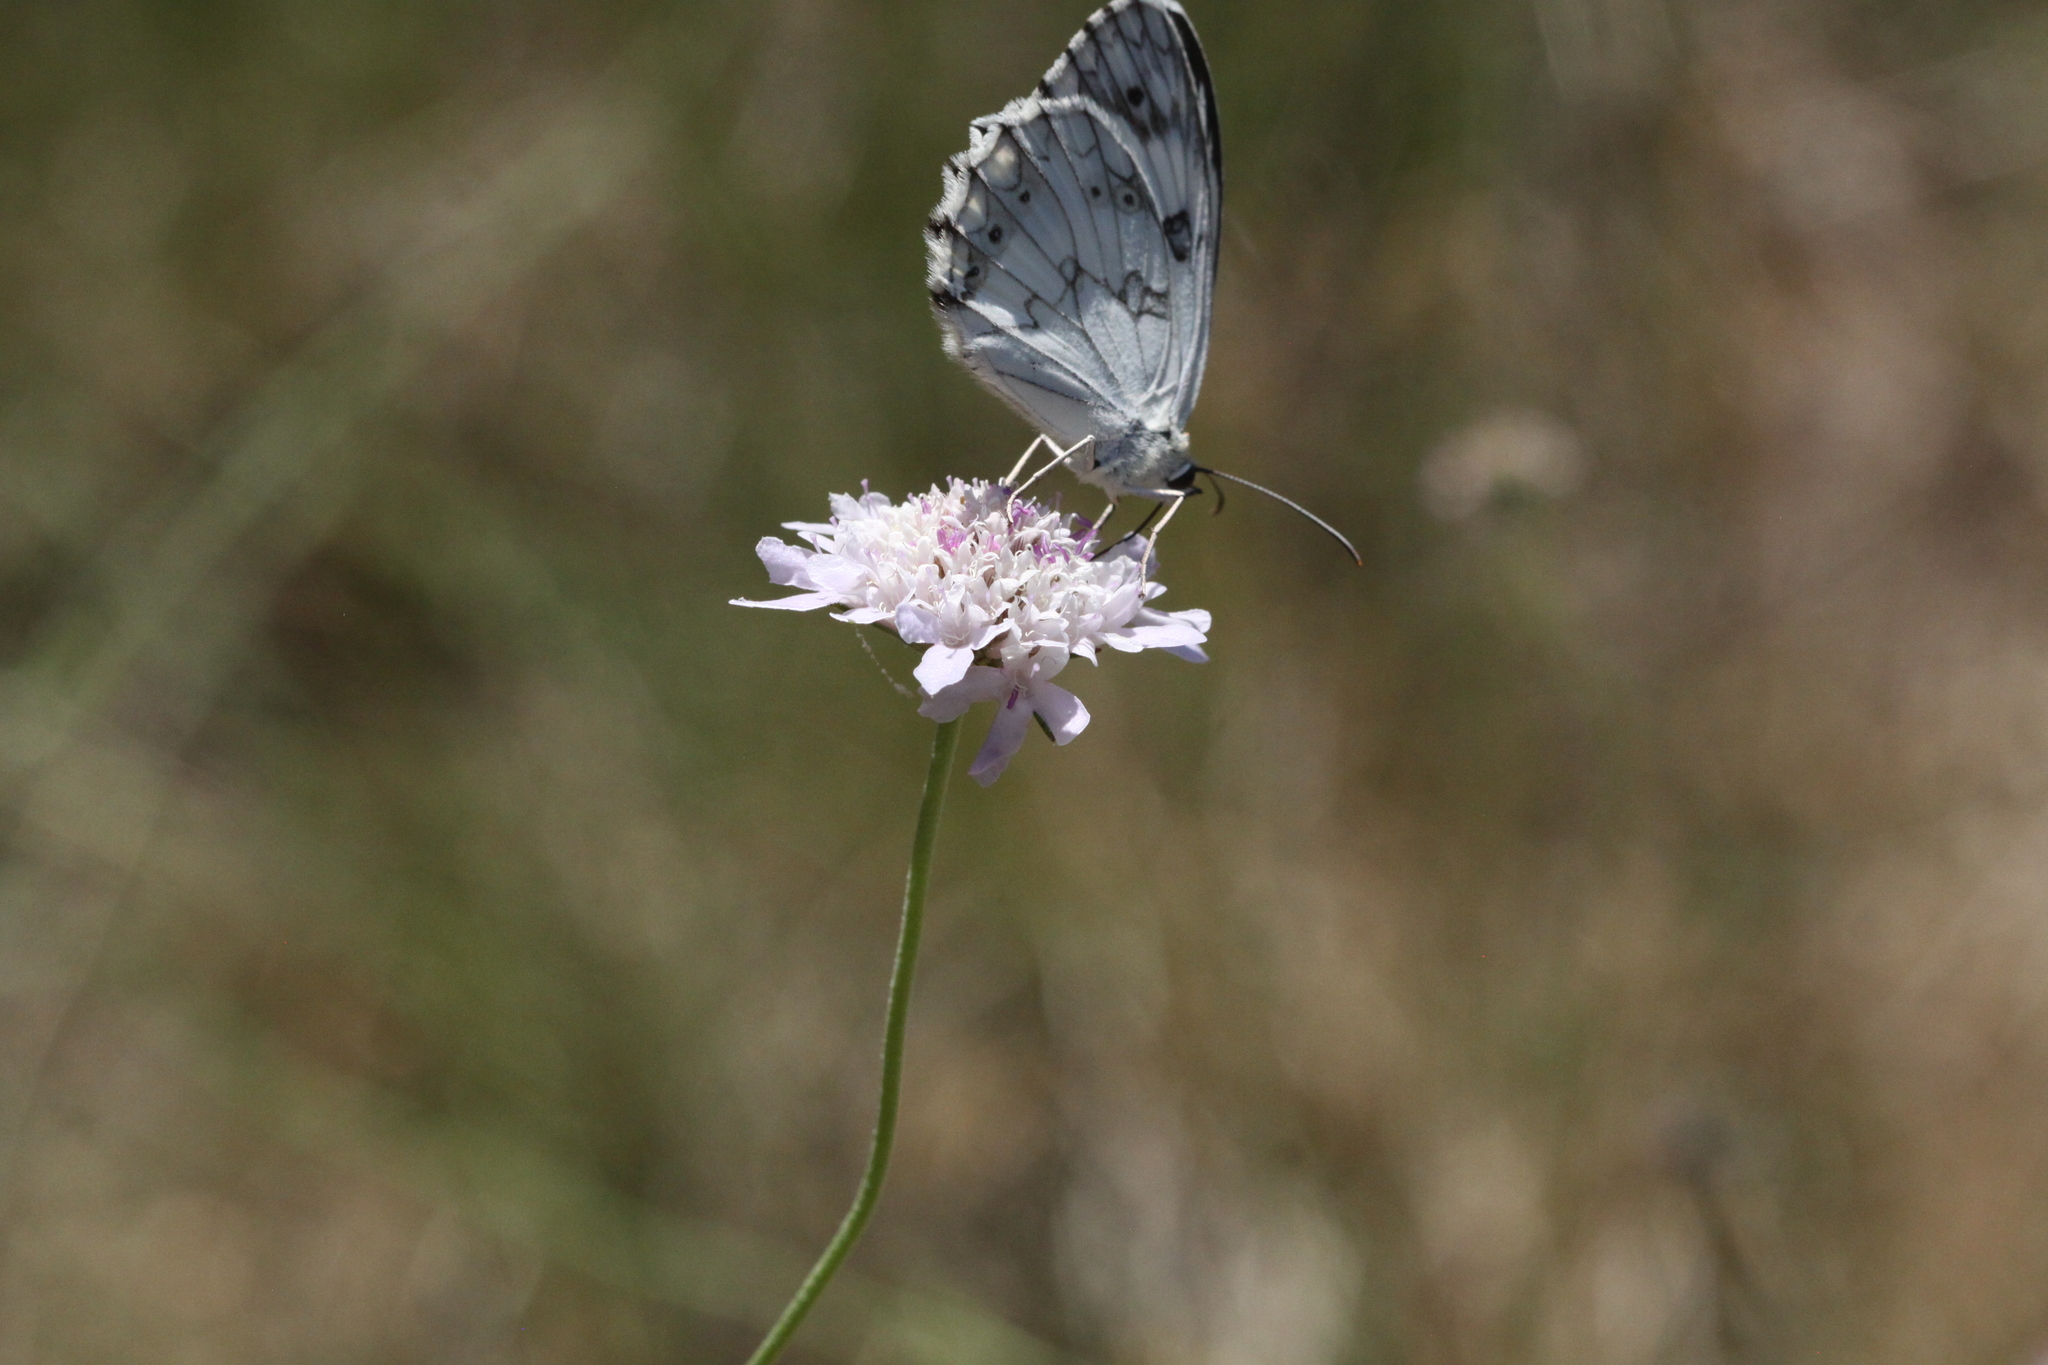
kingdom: Animalia
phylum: Arthropoda
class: Insecta
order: Lepidoptera
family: Nymphalidae
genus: Melanargia
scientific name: Melanargia lachesis
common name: Iberian marbled white
